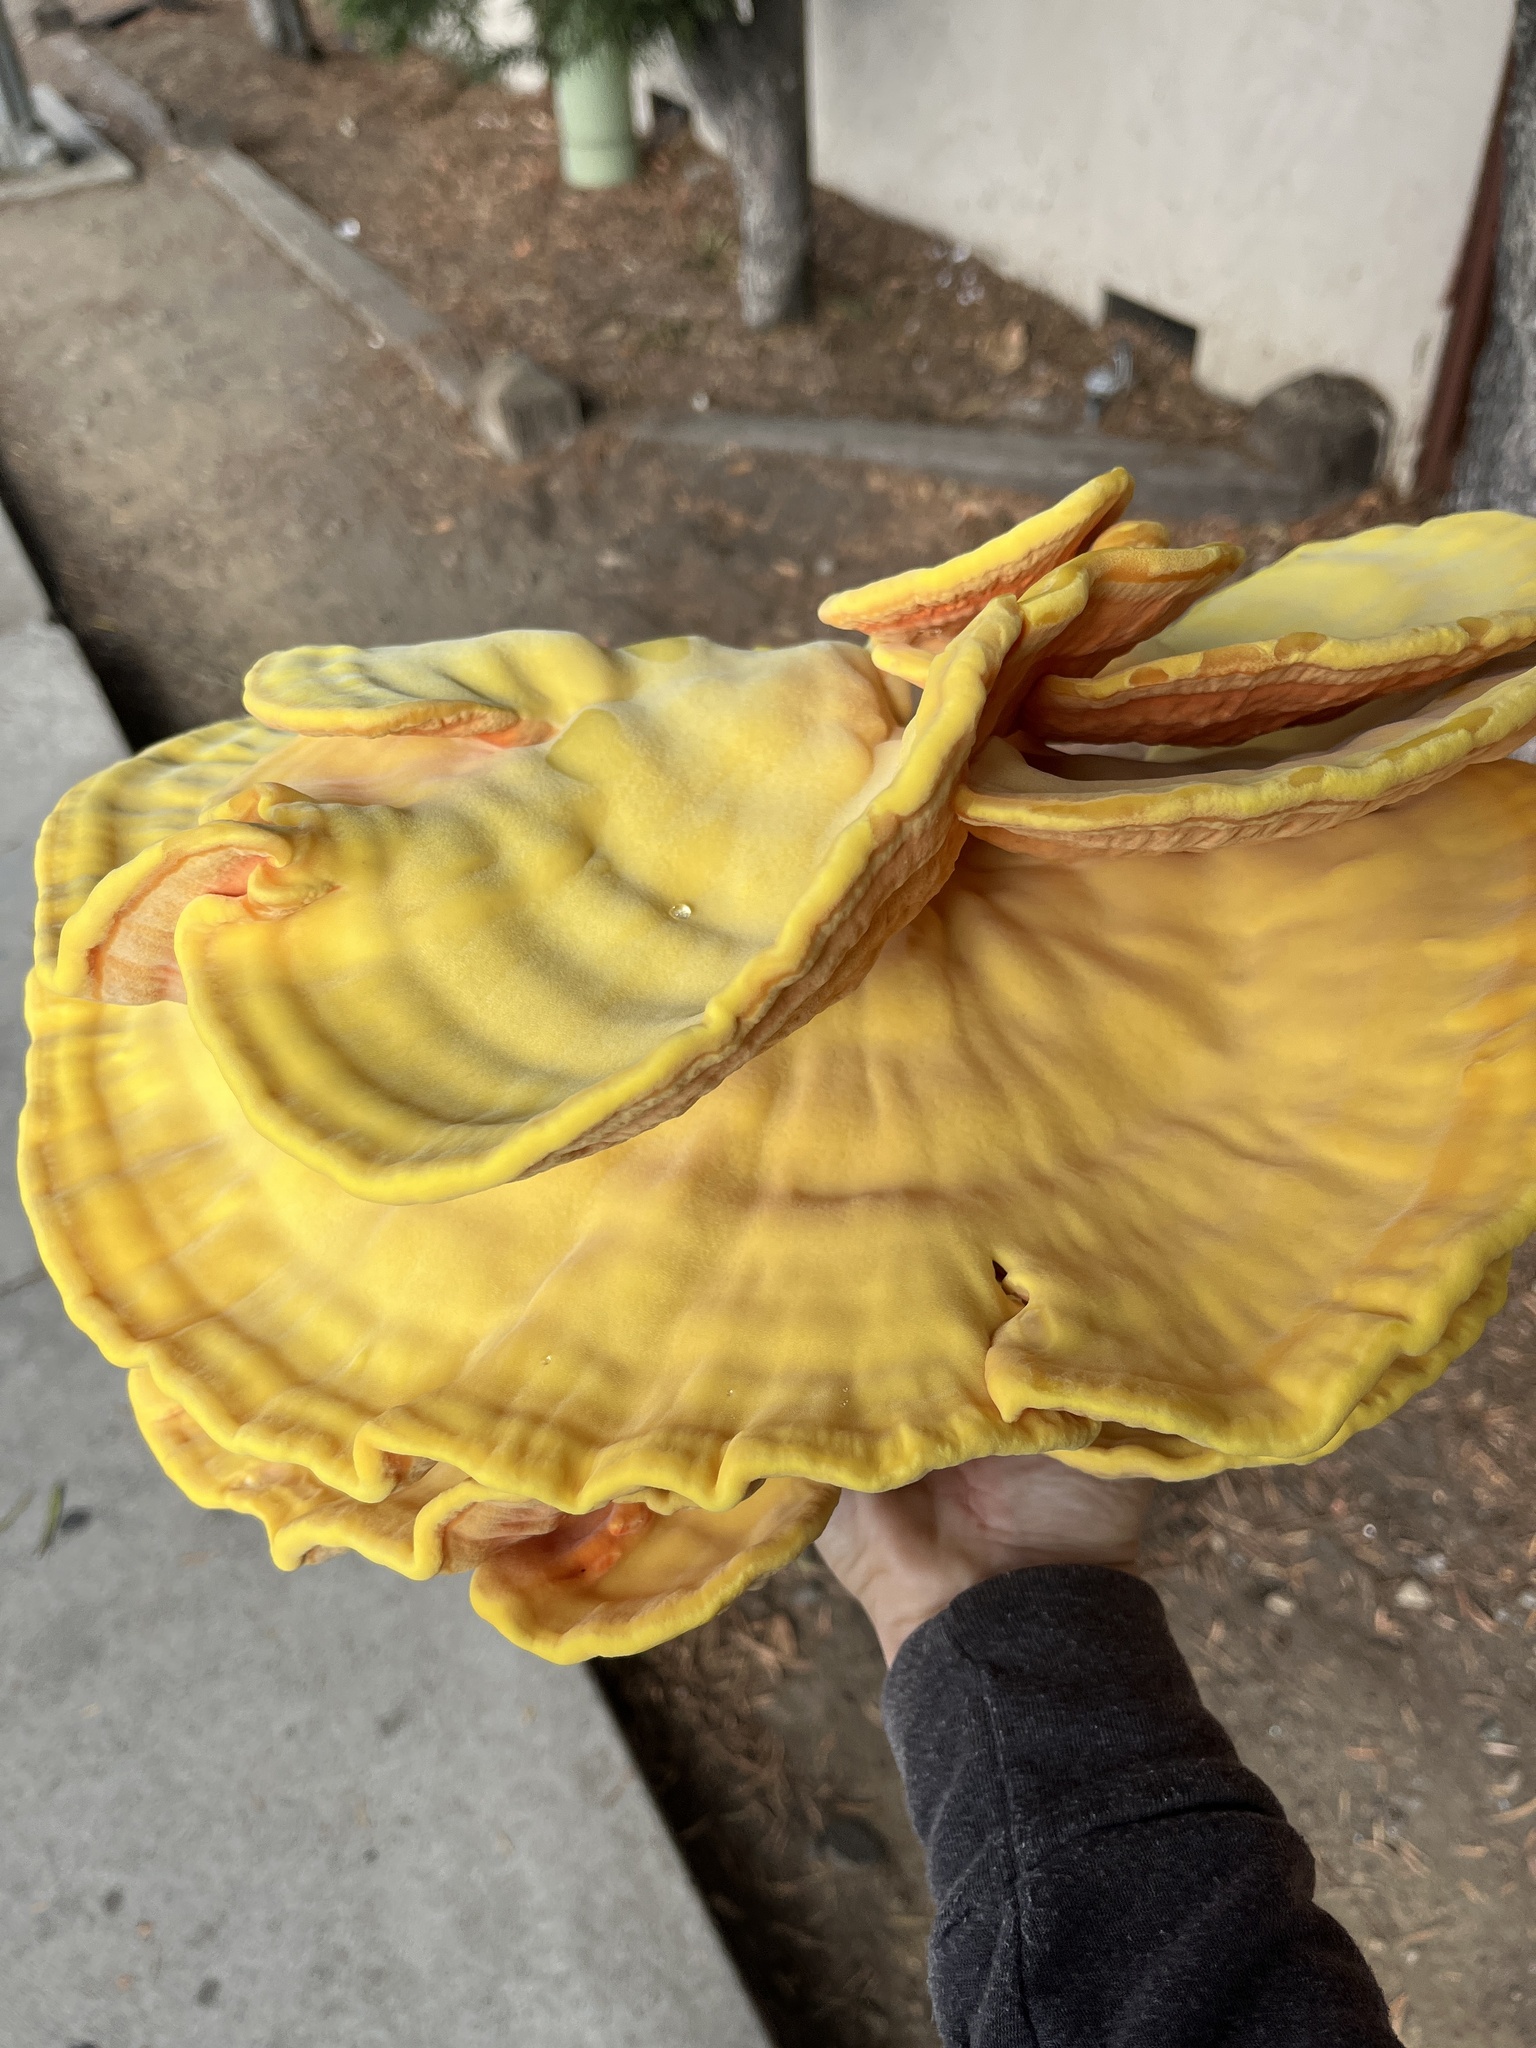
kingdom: Fungi
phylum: Basidiomycota
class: Agaricomycetes
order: Polyporales
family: Laetiporaceae
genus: Laetiporus
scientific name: Laetiporus gilbertsonii
